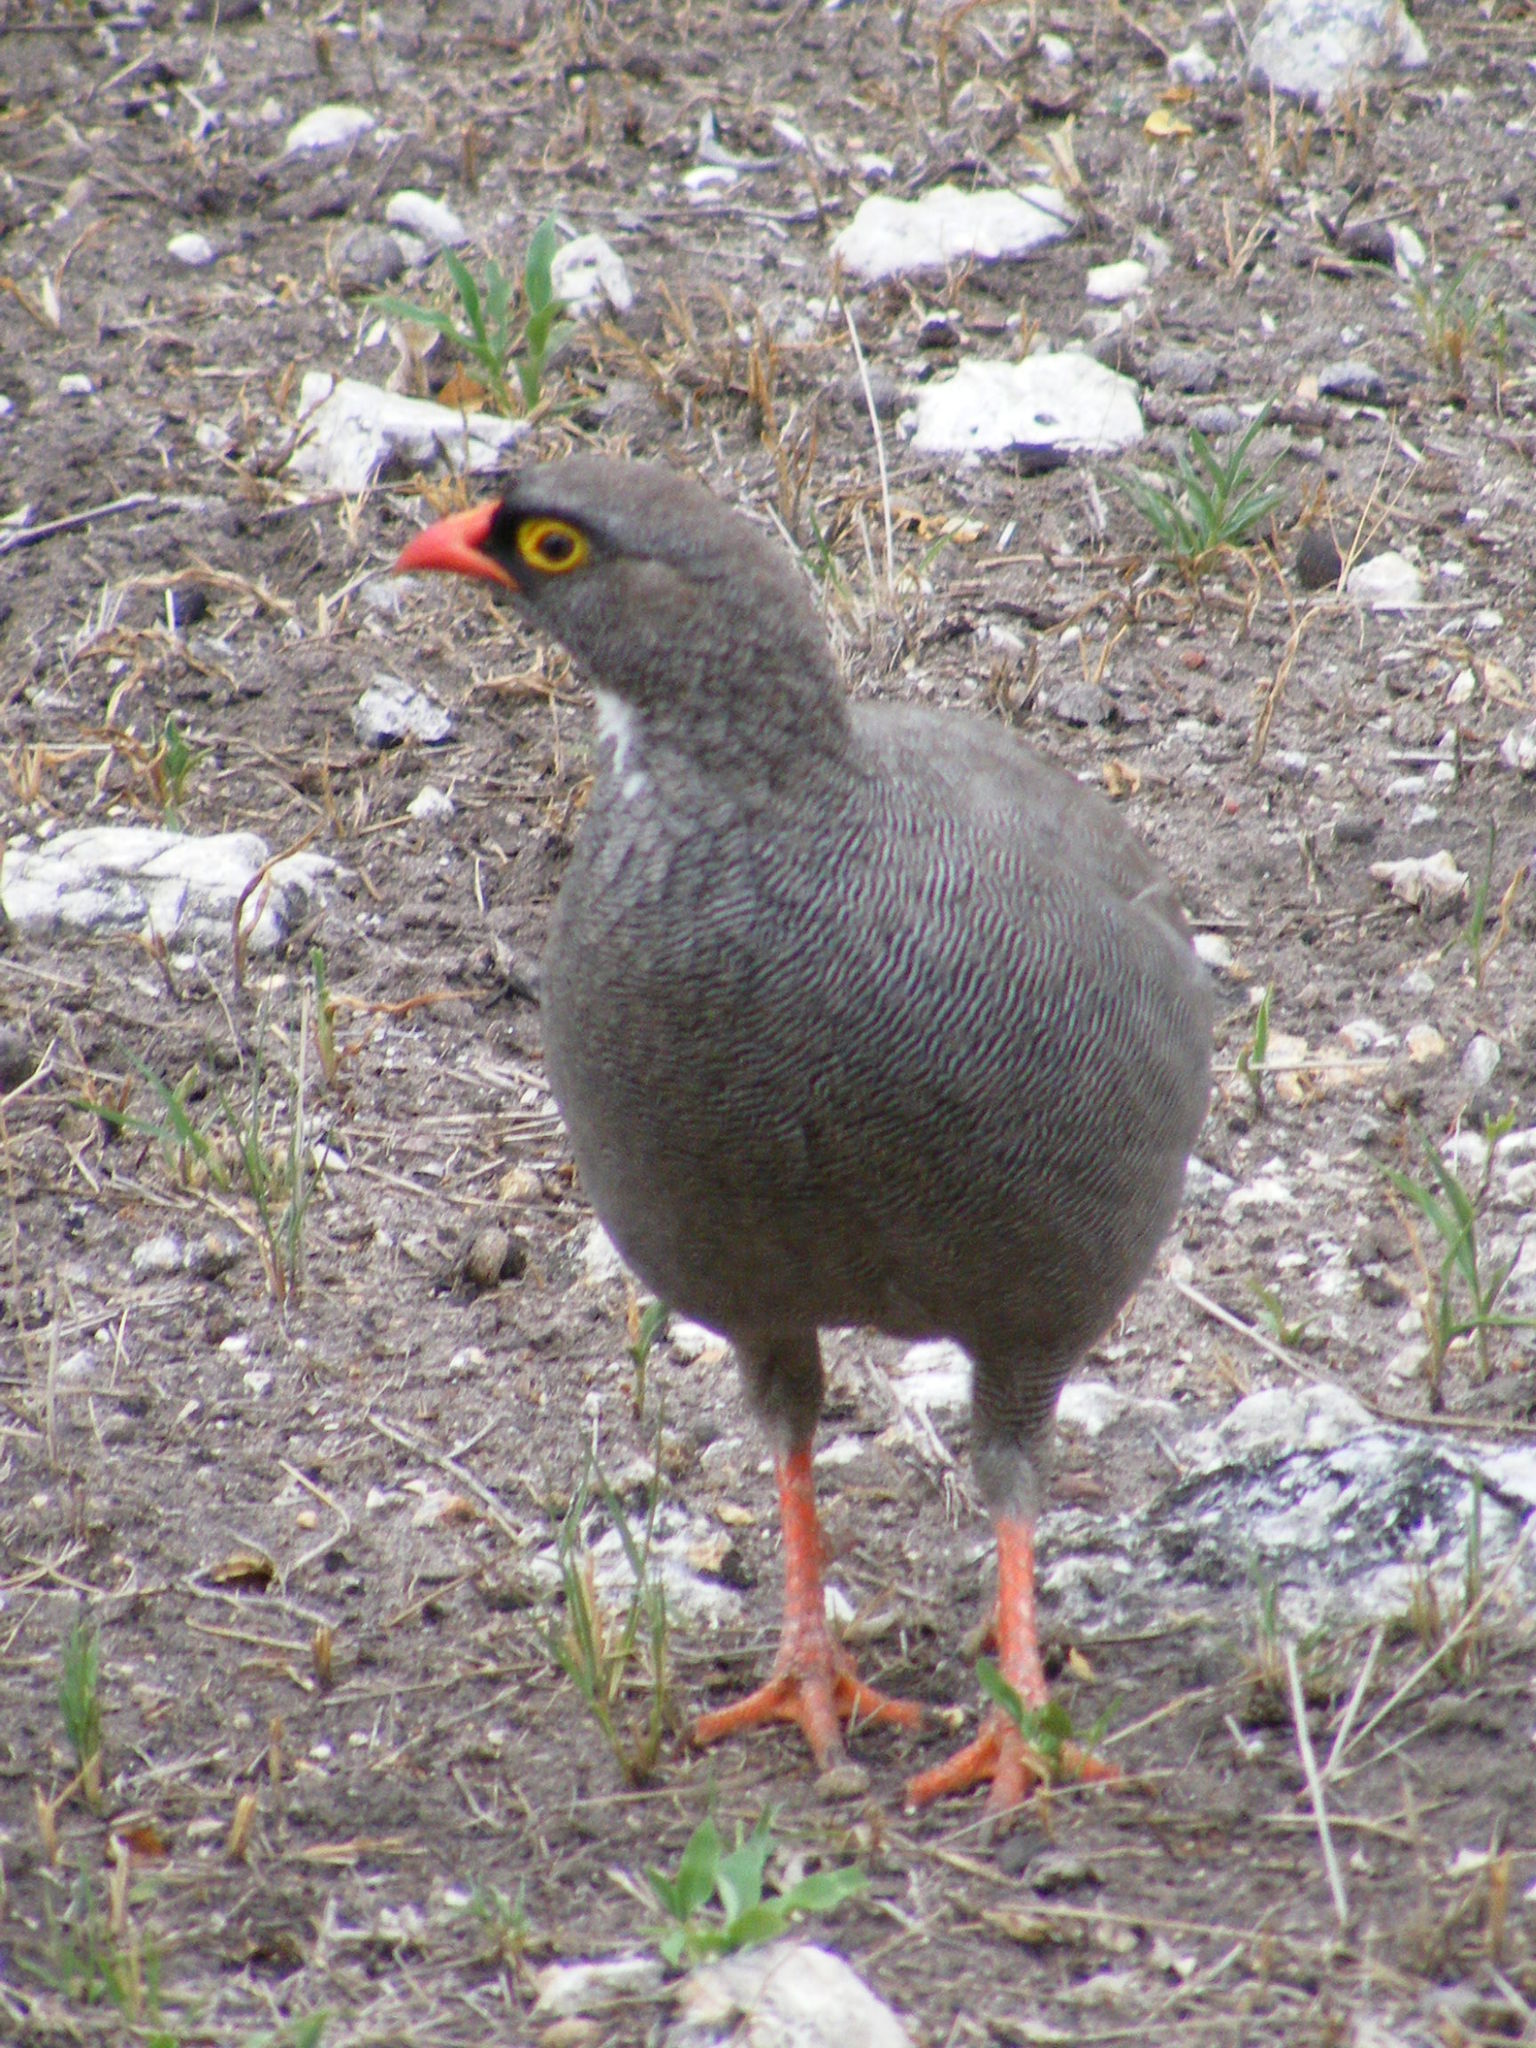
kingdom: Animalia
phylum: Chordata
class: Aves
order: Galliformes
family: Phasianidae
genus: Pternistis
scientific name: Pternistis adspersus
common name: Red-billed spurfowl
